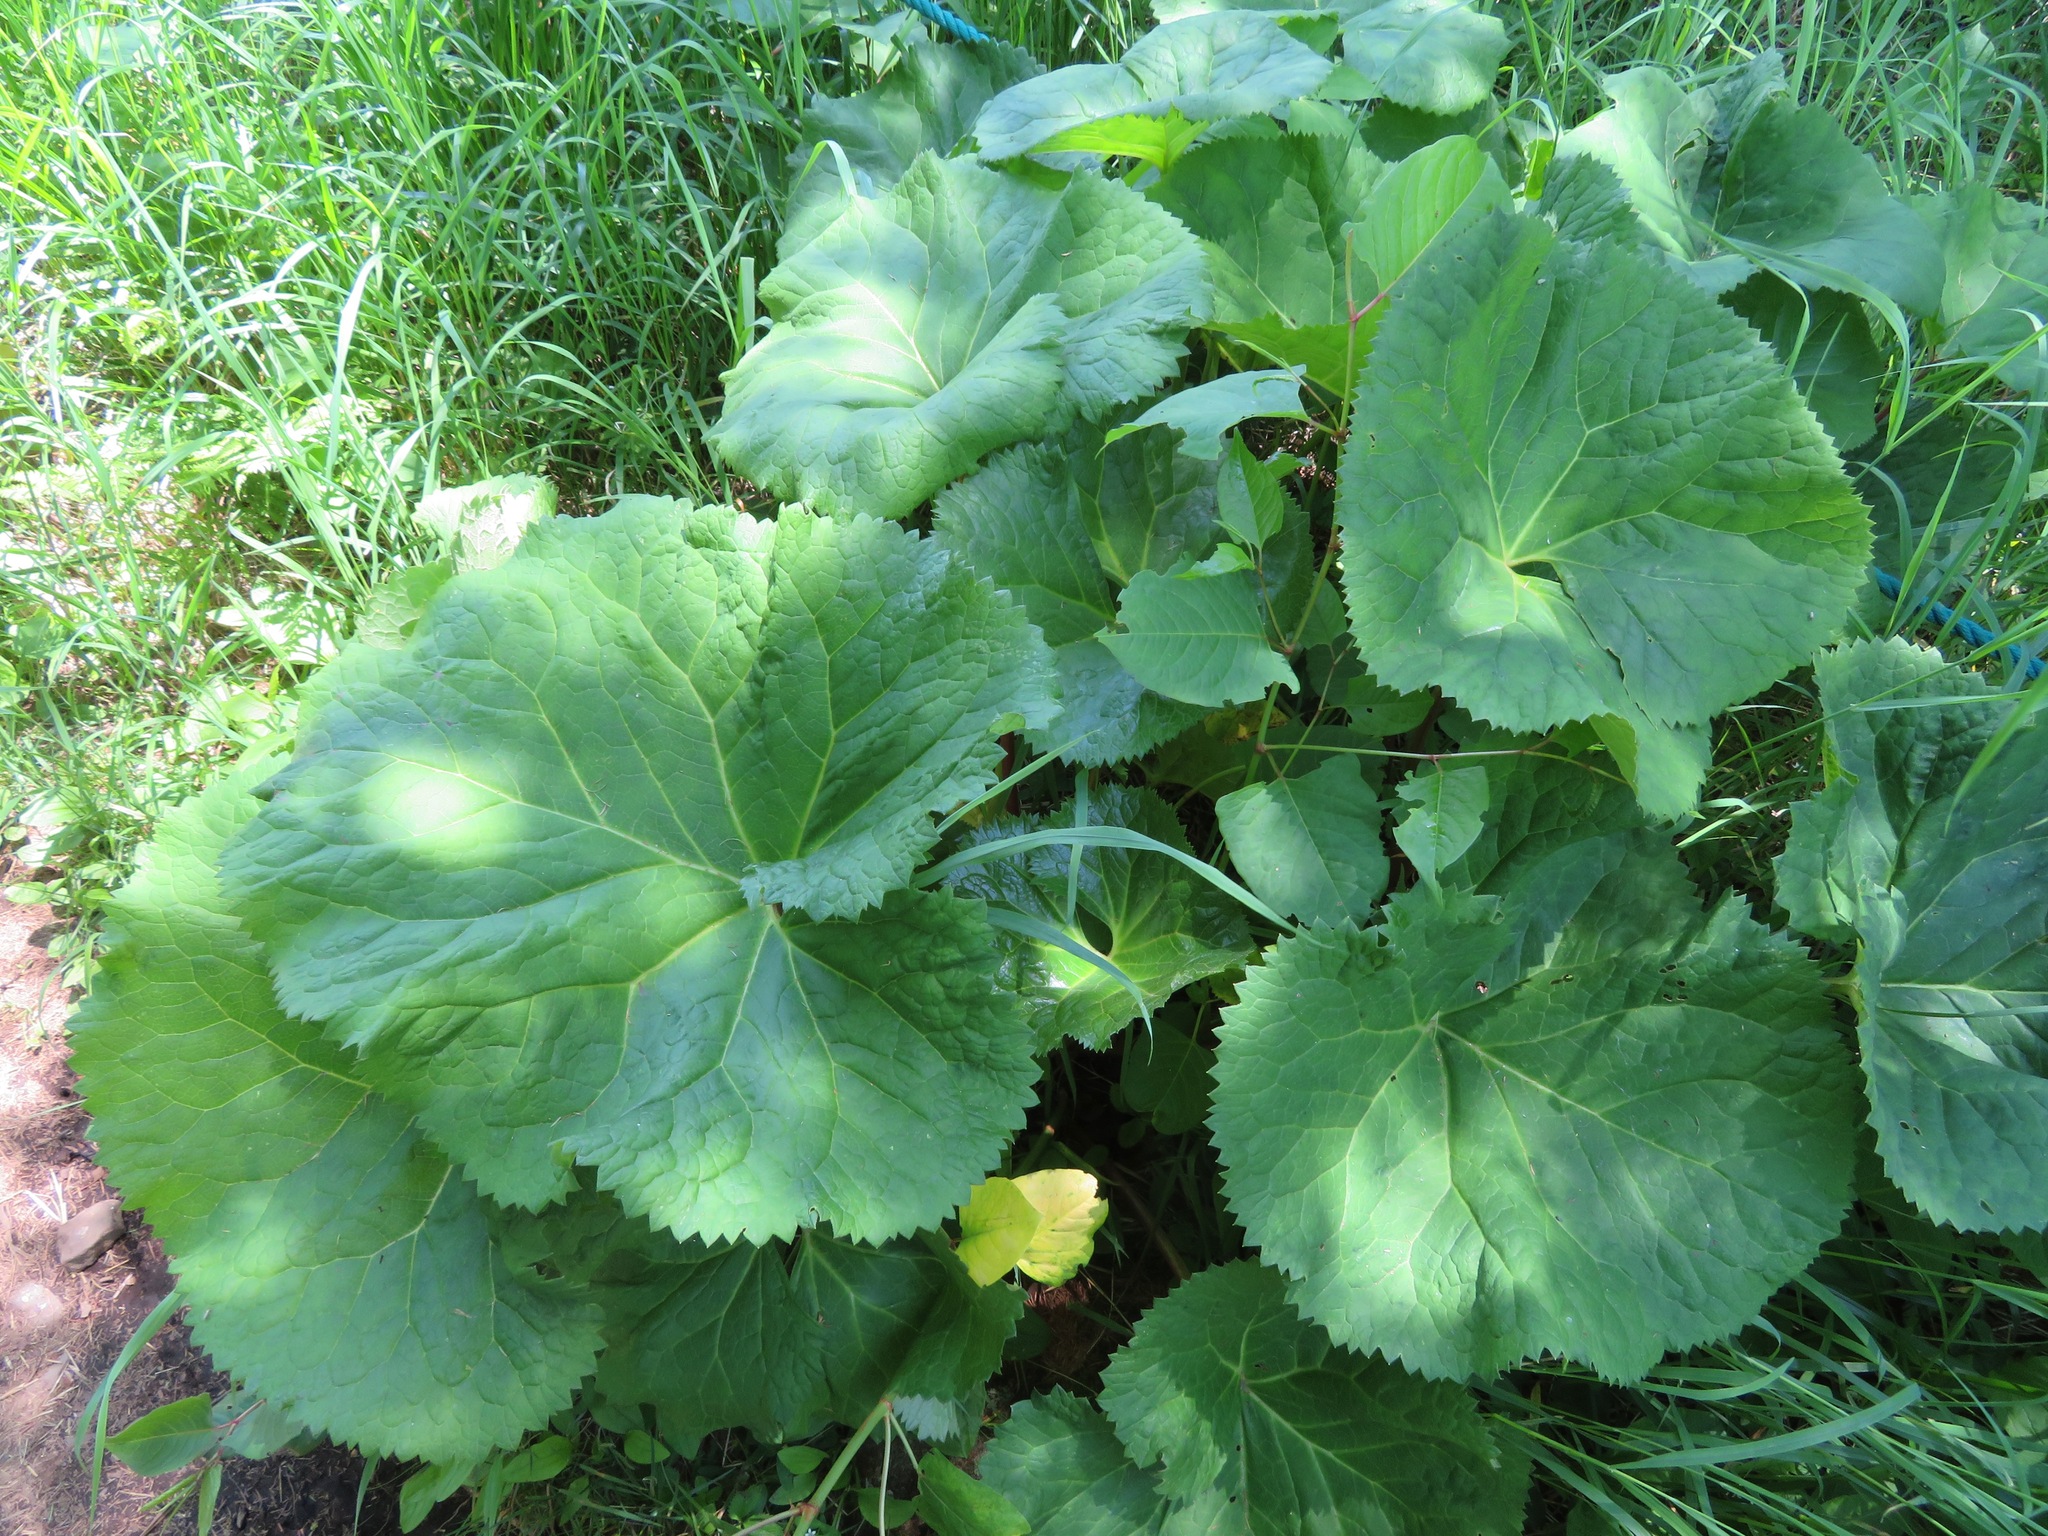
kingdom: Plantae
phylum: Tracheophyta
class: Magnoliopsida
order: Asterales
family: Asteraceae
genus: Ligularia
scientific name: Ligularia dentata
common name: Leopardplant
